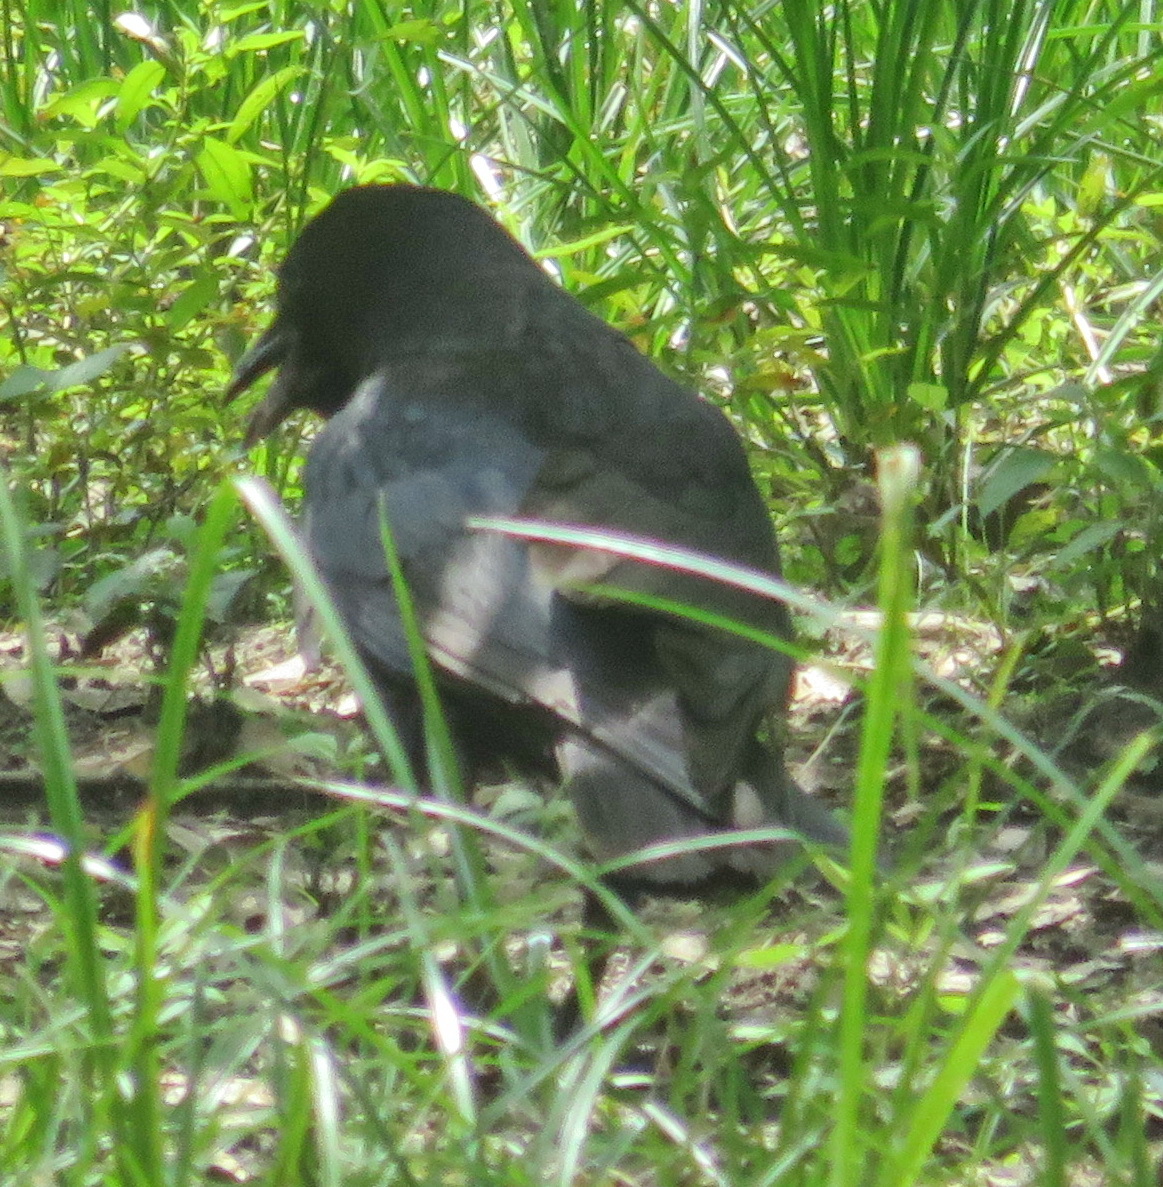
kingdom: Animalia
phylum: Chordata
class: Aves
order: Passeriformes
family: Corvidae
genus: Corvus
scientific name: Corvus brachyrhynchos
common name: American crow
